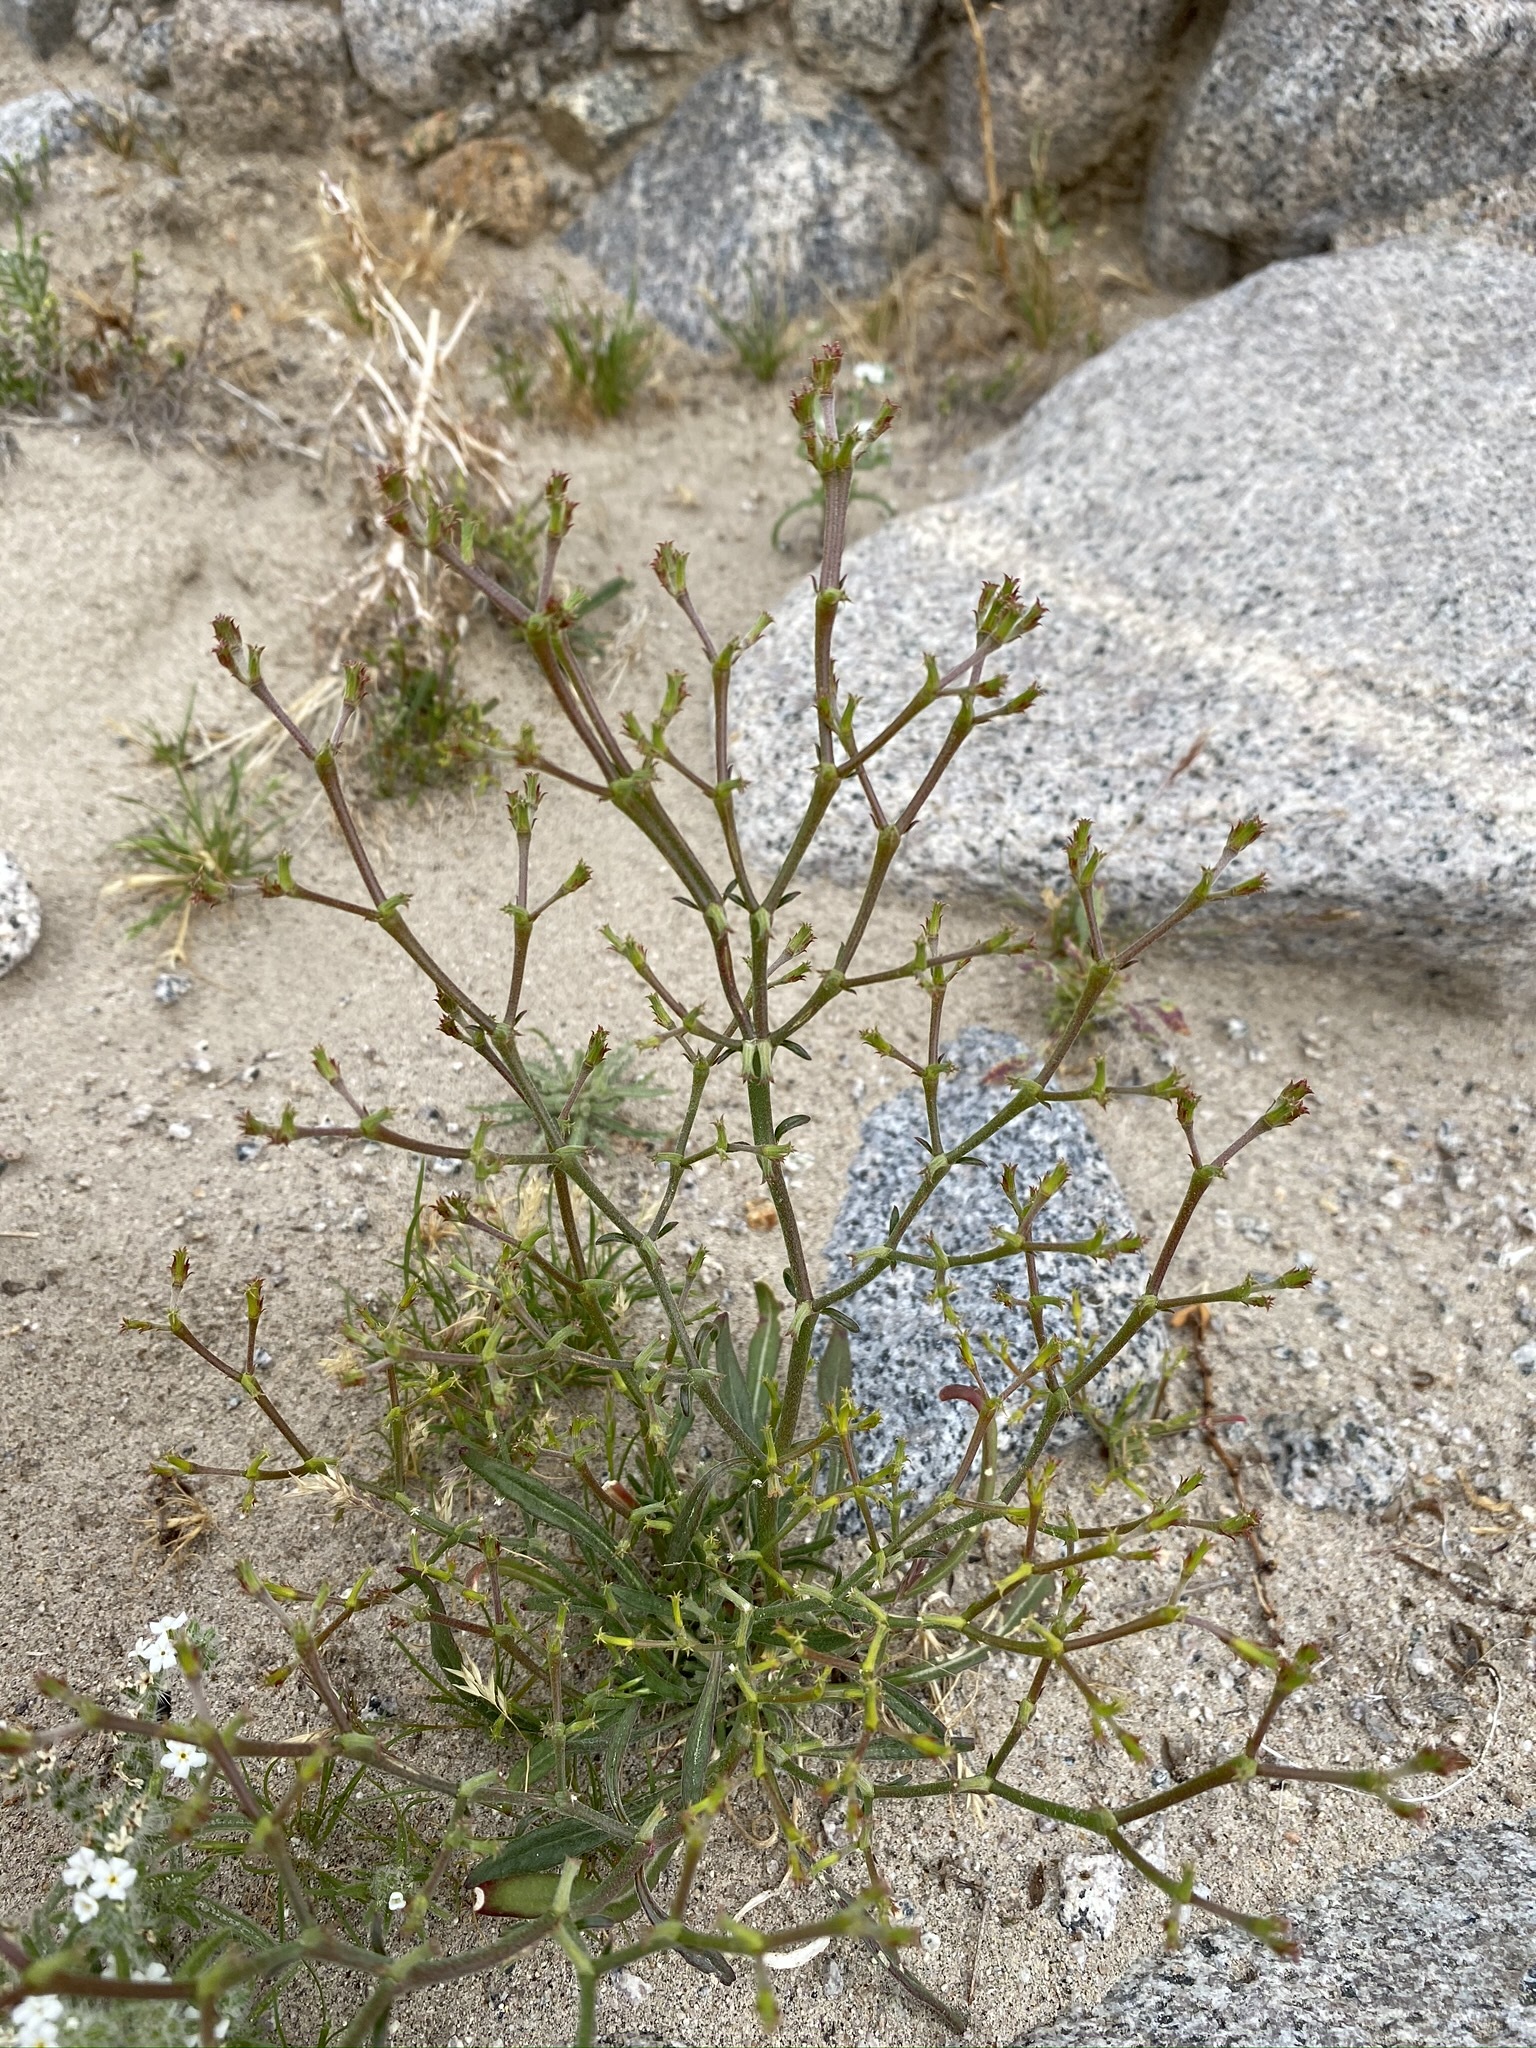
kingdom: Plantae
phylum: Tracheophyta
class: Magnoliopsida
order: Caryophyllales
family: Polygonaceae
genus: Chorizanthe
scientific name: Chorizanthe brevicornu
